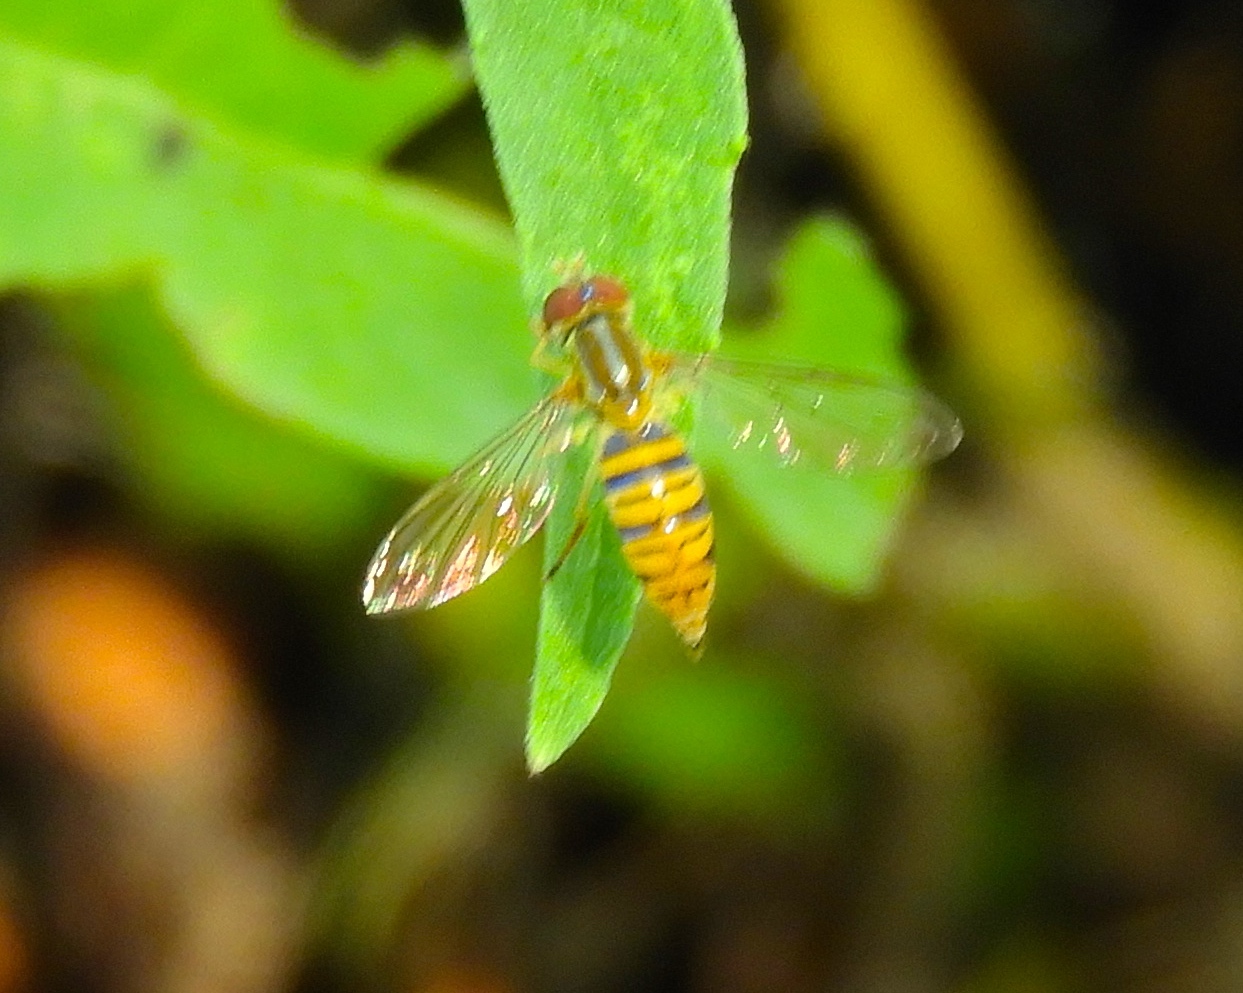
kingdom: Animalia
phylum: Arthropoda
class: Insecta
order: Diptera
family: Syrphidae
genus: Toxomerus
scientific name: Toxomerus politus
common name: Maize calligrapher
